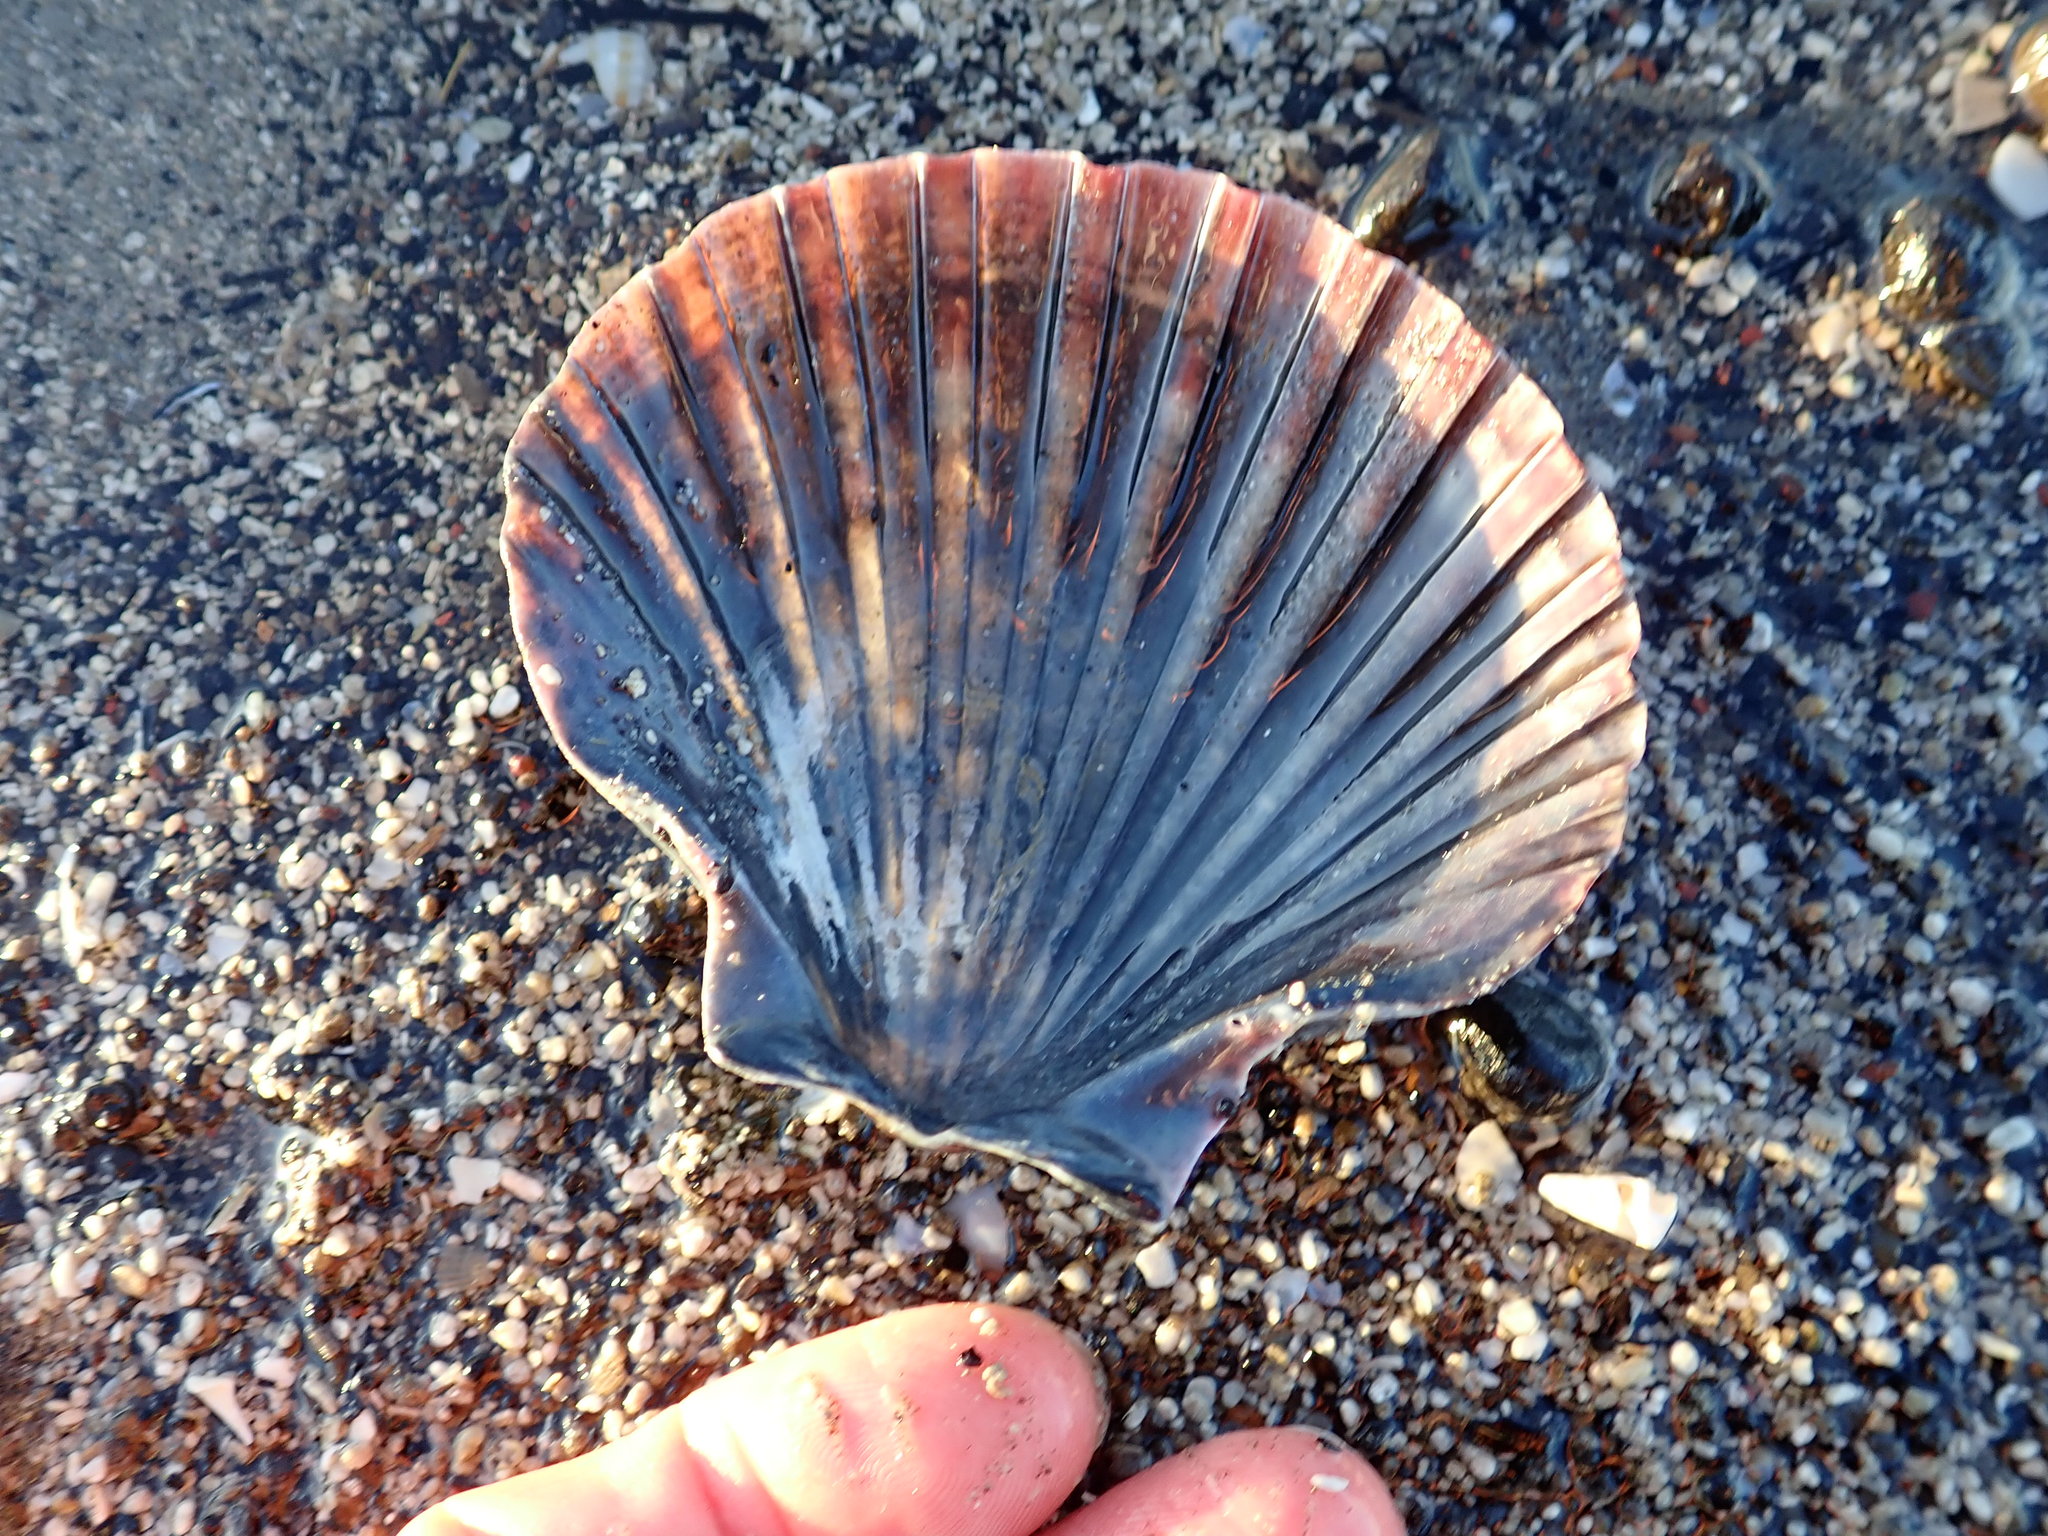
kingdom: Animalia
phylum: Mollusca
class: Bivalvia
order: Pectinida
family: Pectinidae
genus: Pecten
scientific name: Pecten novaezelandiae
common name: New zealand scallop
